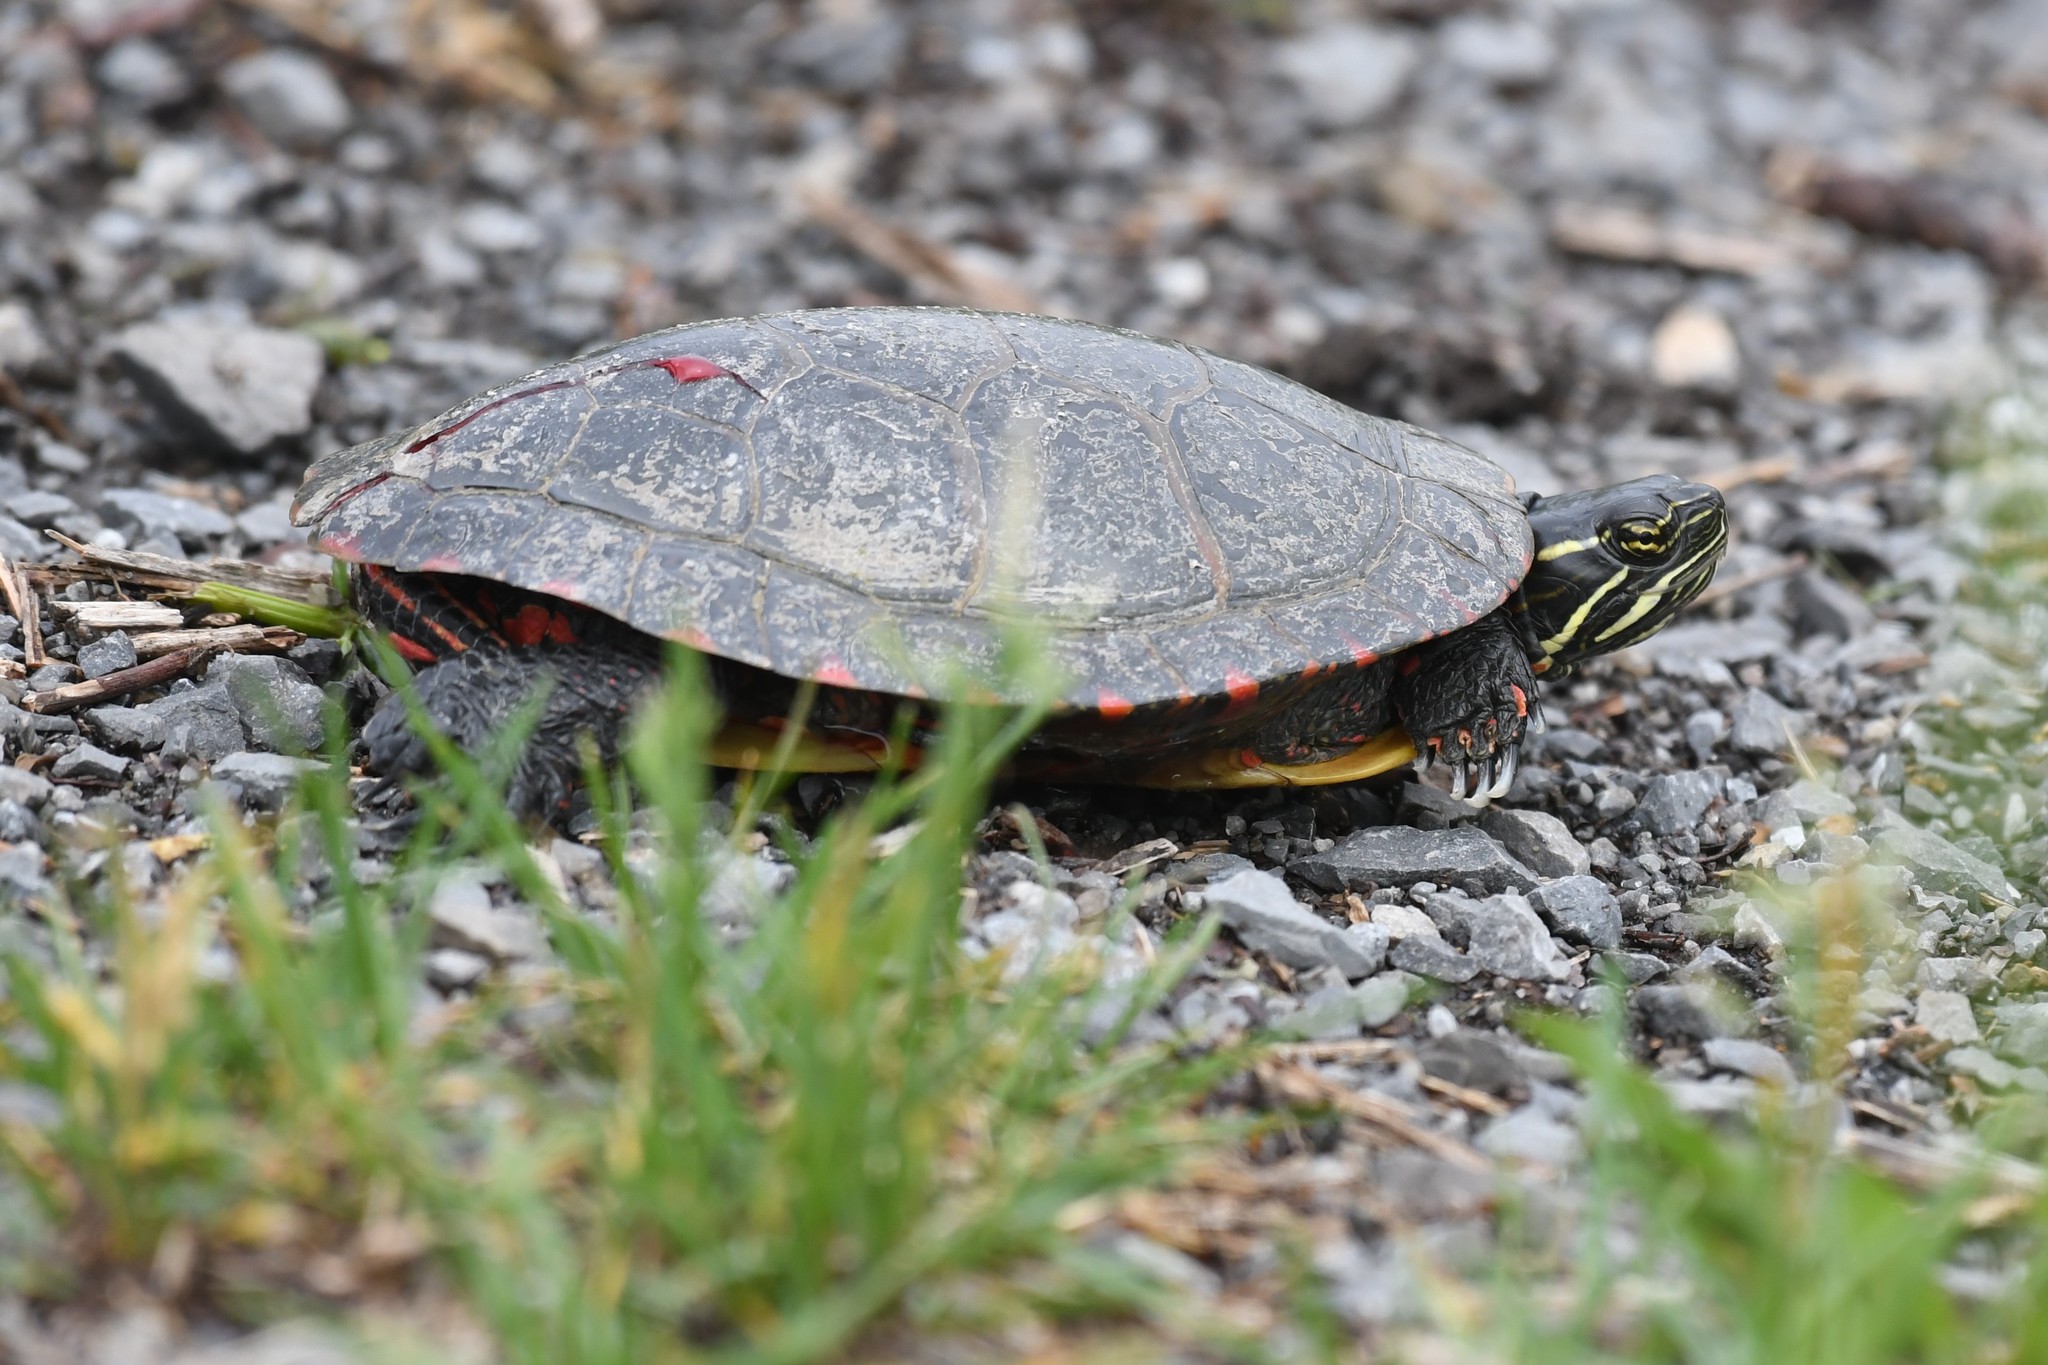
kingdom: Animalia
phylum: Chordata
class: Testudines
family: Emydidae
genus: Chrysemys
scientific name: Chrysemys picta
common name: Painted turtle
